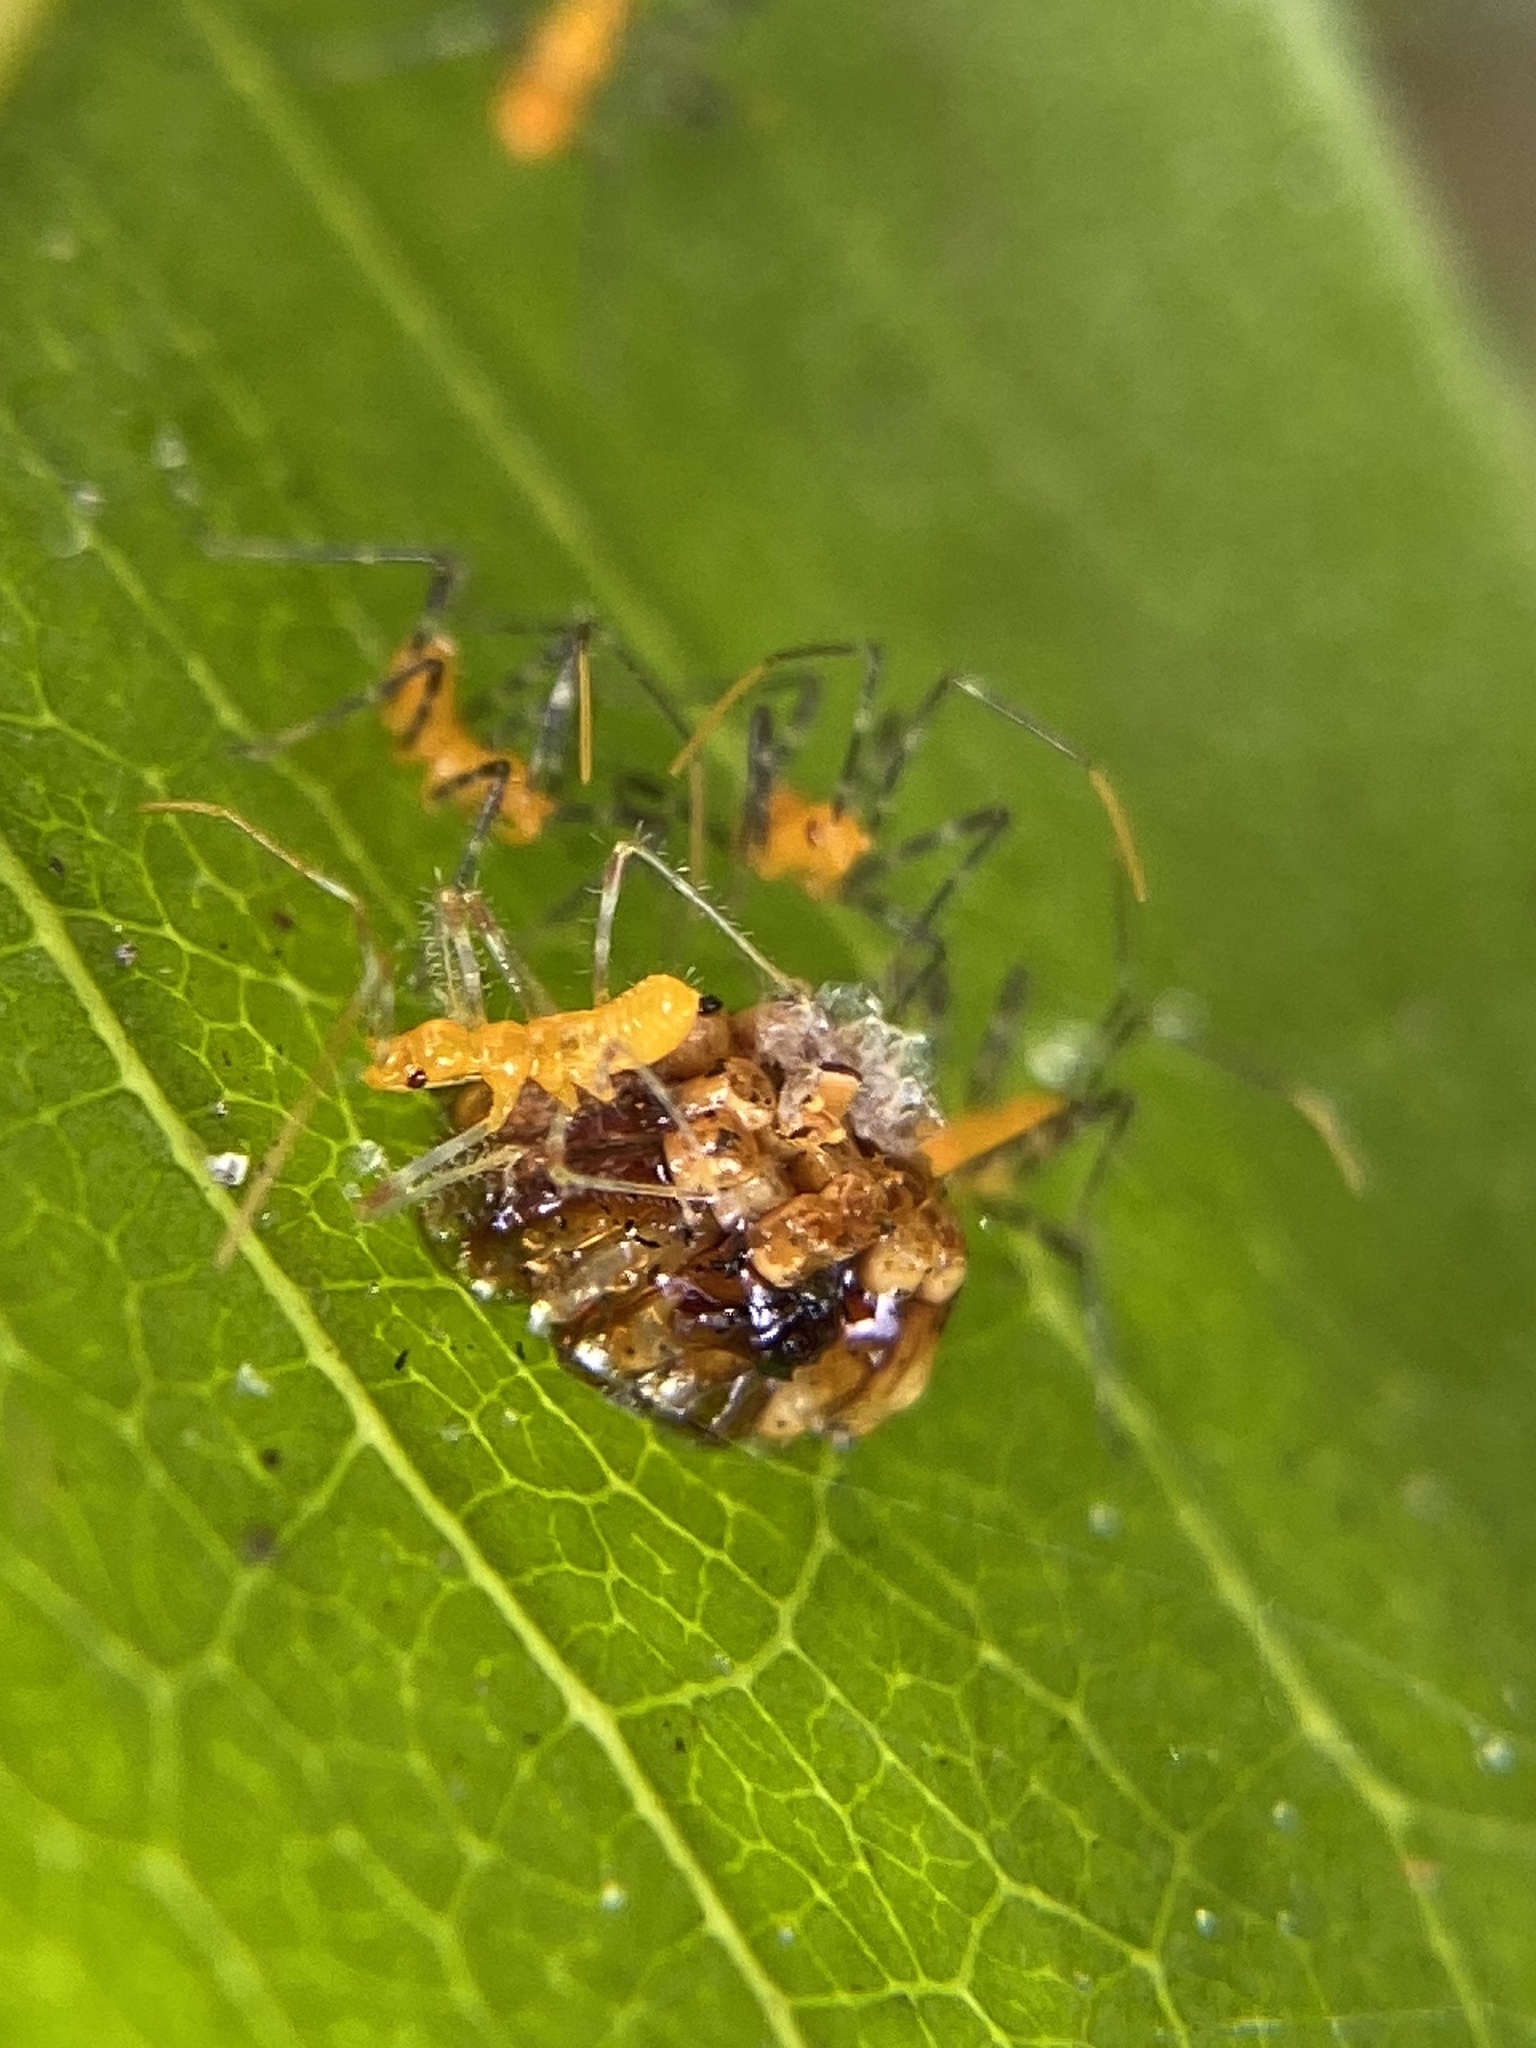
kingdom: Animalia
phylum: Arthropoda
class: Insecta
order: Hemiptera
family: Reduviidae
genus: Zelus
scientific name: Zelus longipes
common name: Milkweed assassin bug
